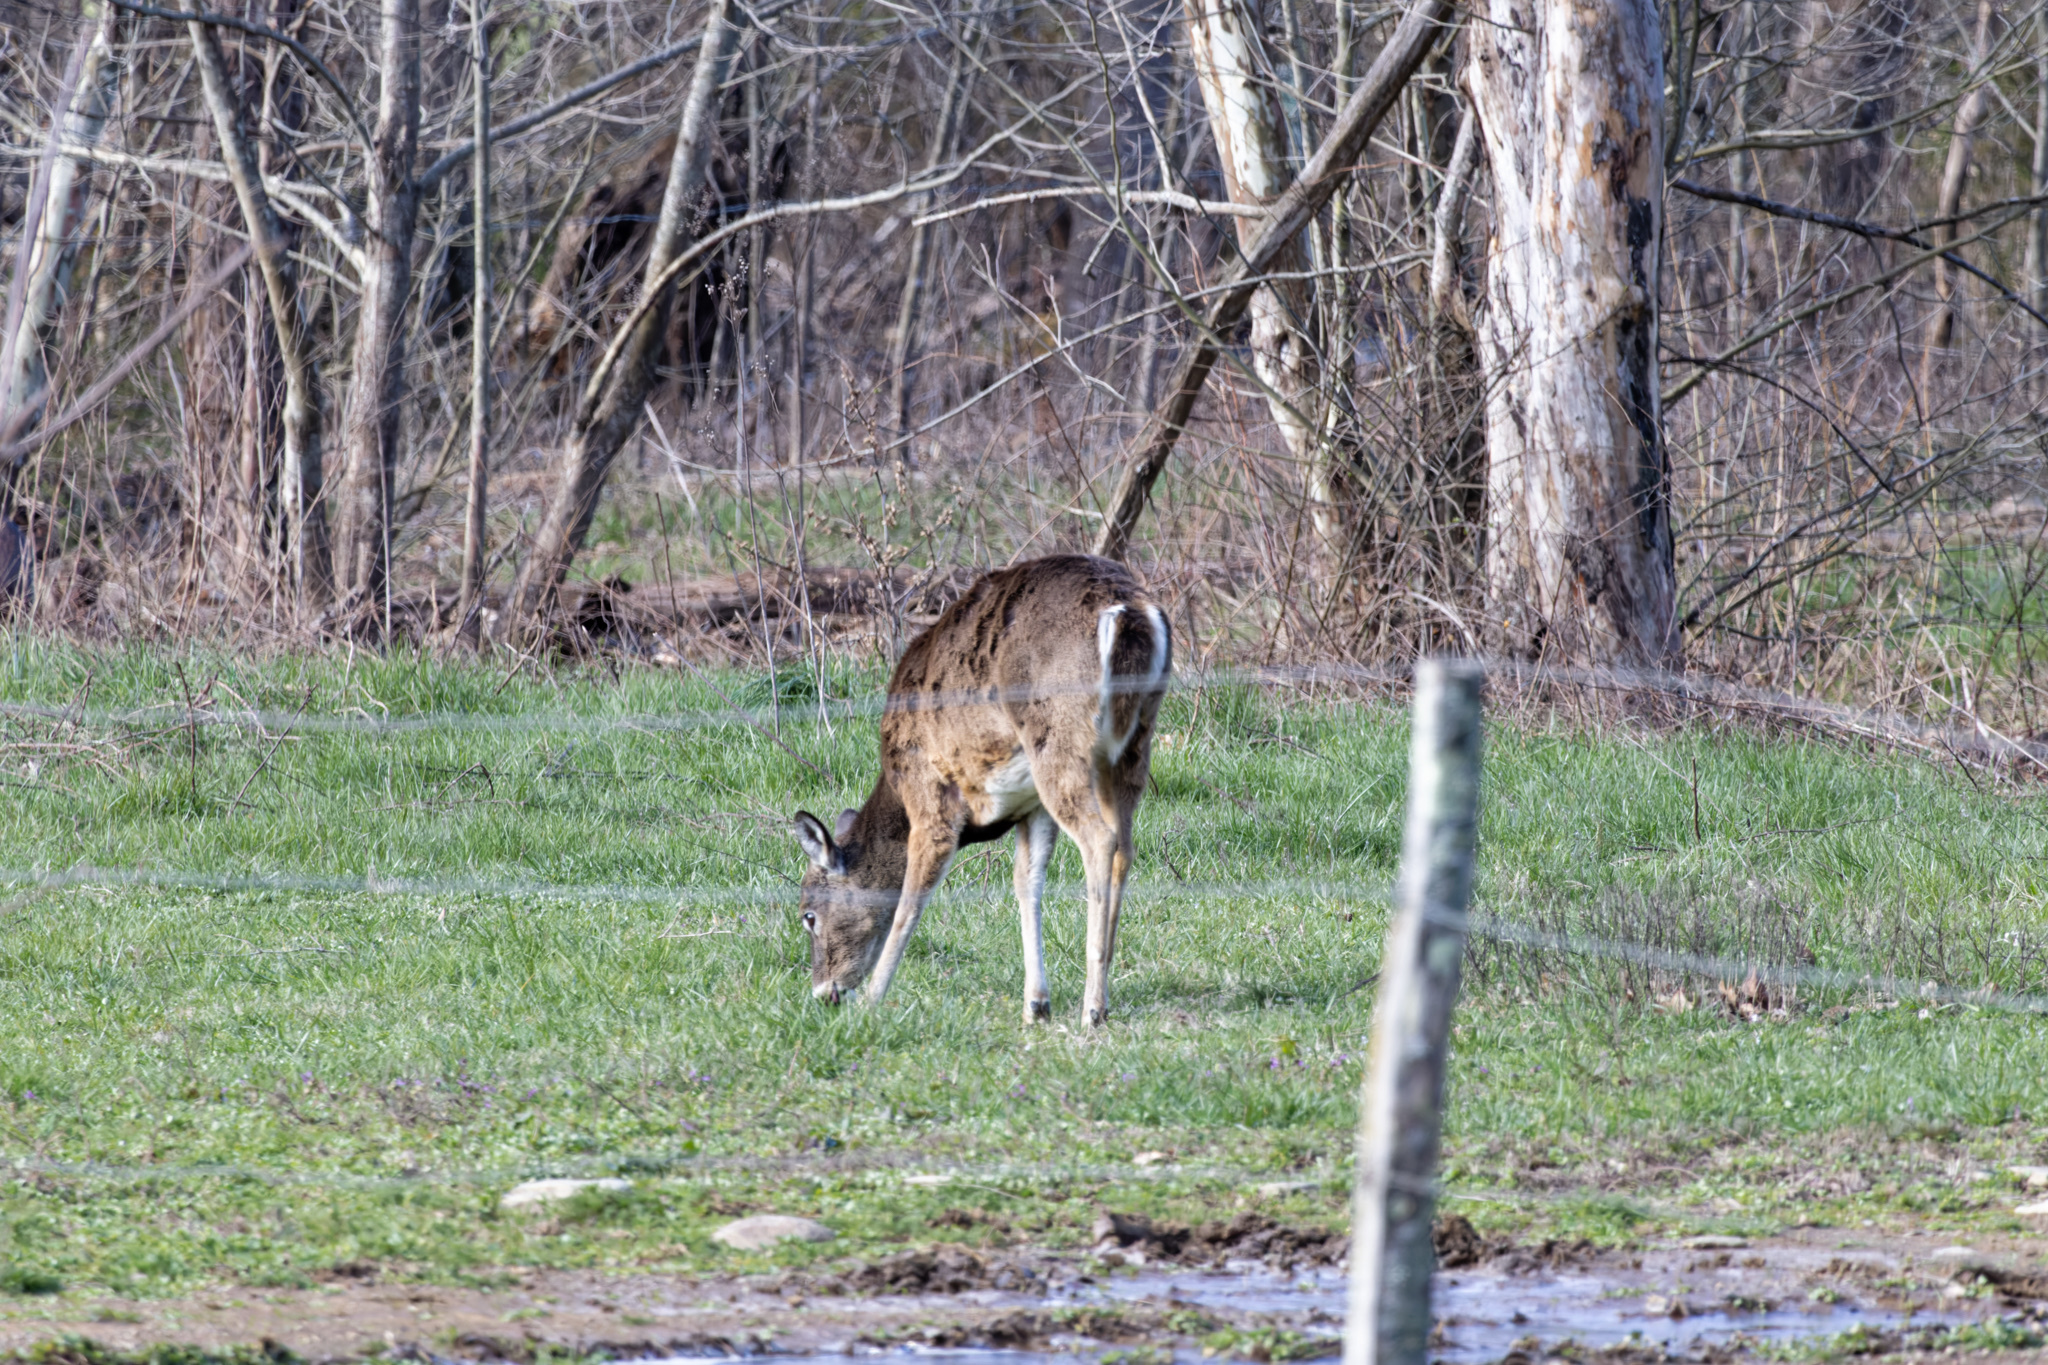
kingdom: Animalia
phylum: Chordata
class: Mammalia
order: Artiodactyla
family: Cervidae
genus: Odocoileus
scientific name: Odocoileus virginianus
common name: White-tailed deer
